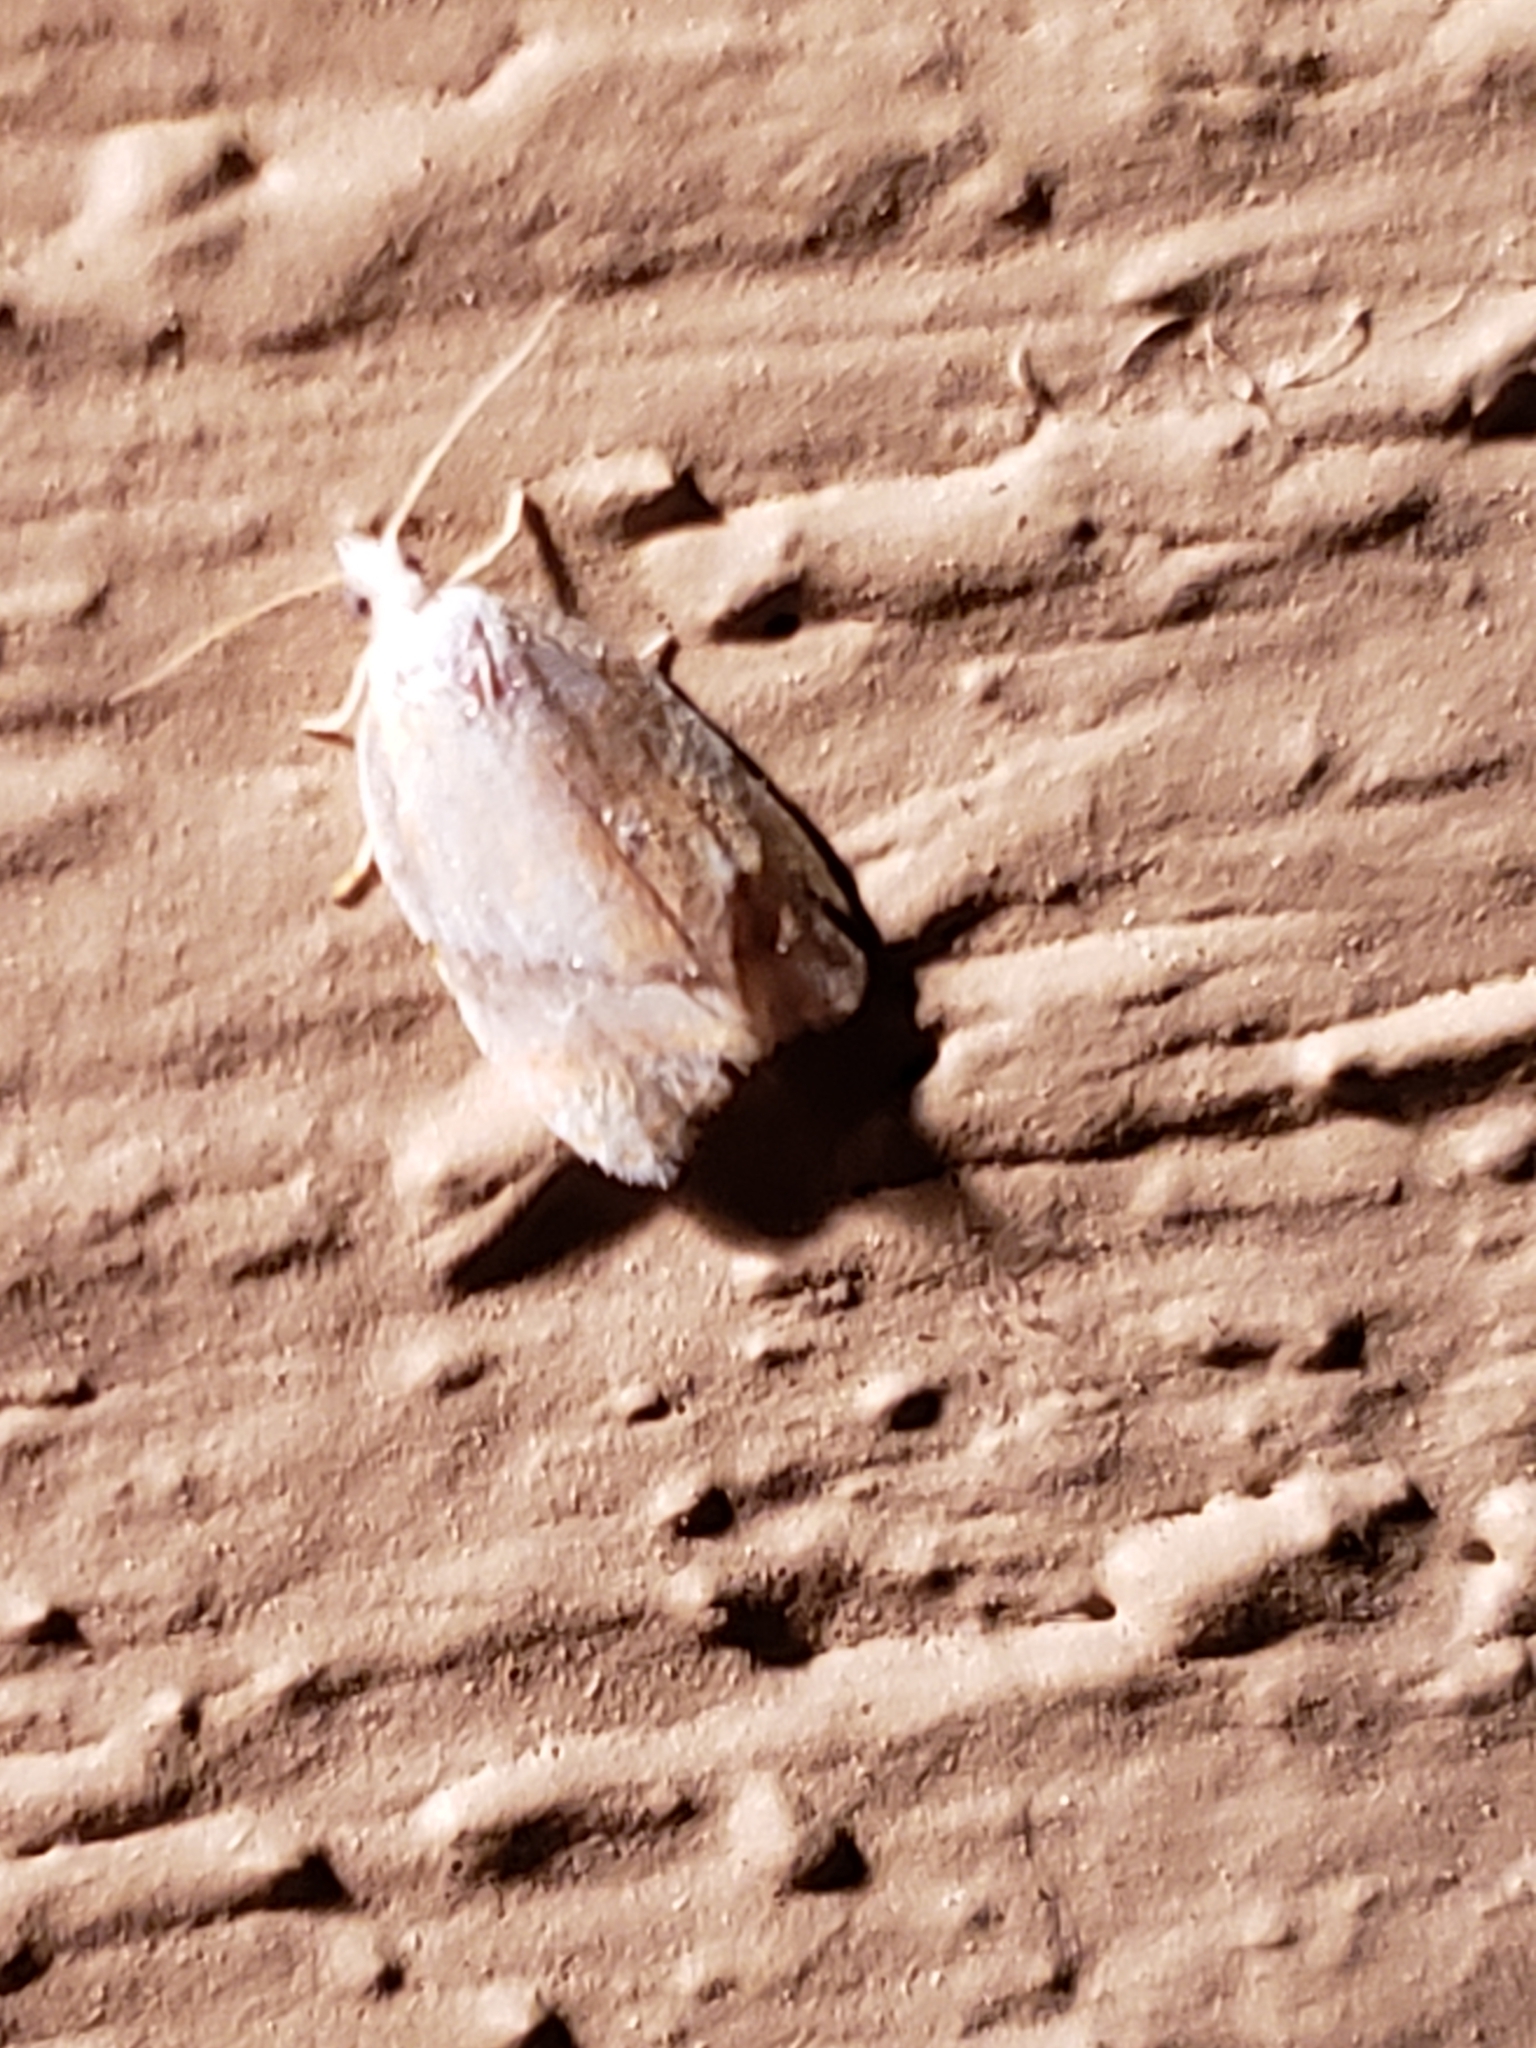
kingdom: Animalia
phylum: Arthropoda
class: Insecta
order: Lepidoptera
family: Tortricidae
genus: Acleris
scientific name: Acleris semipurpurana
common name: Oak leaftier moth
